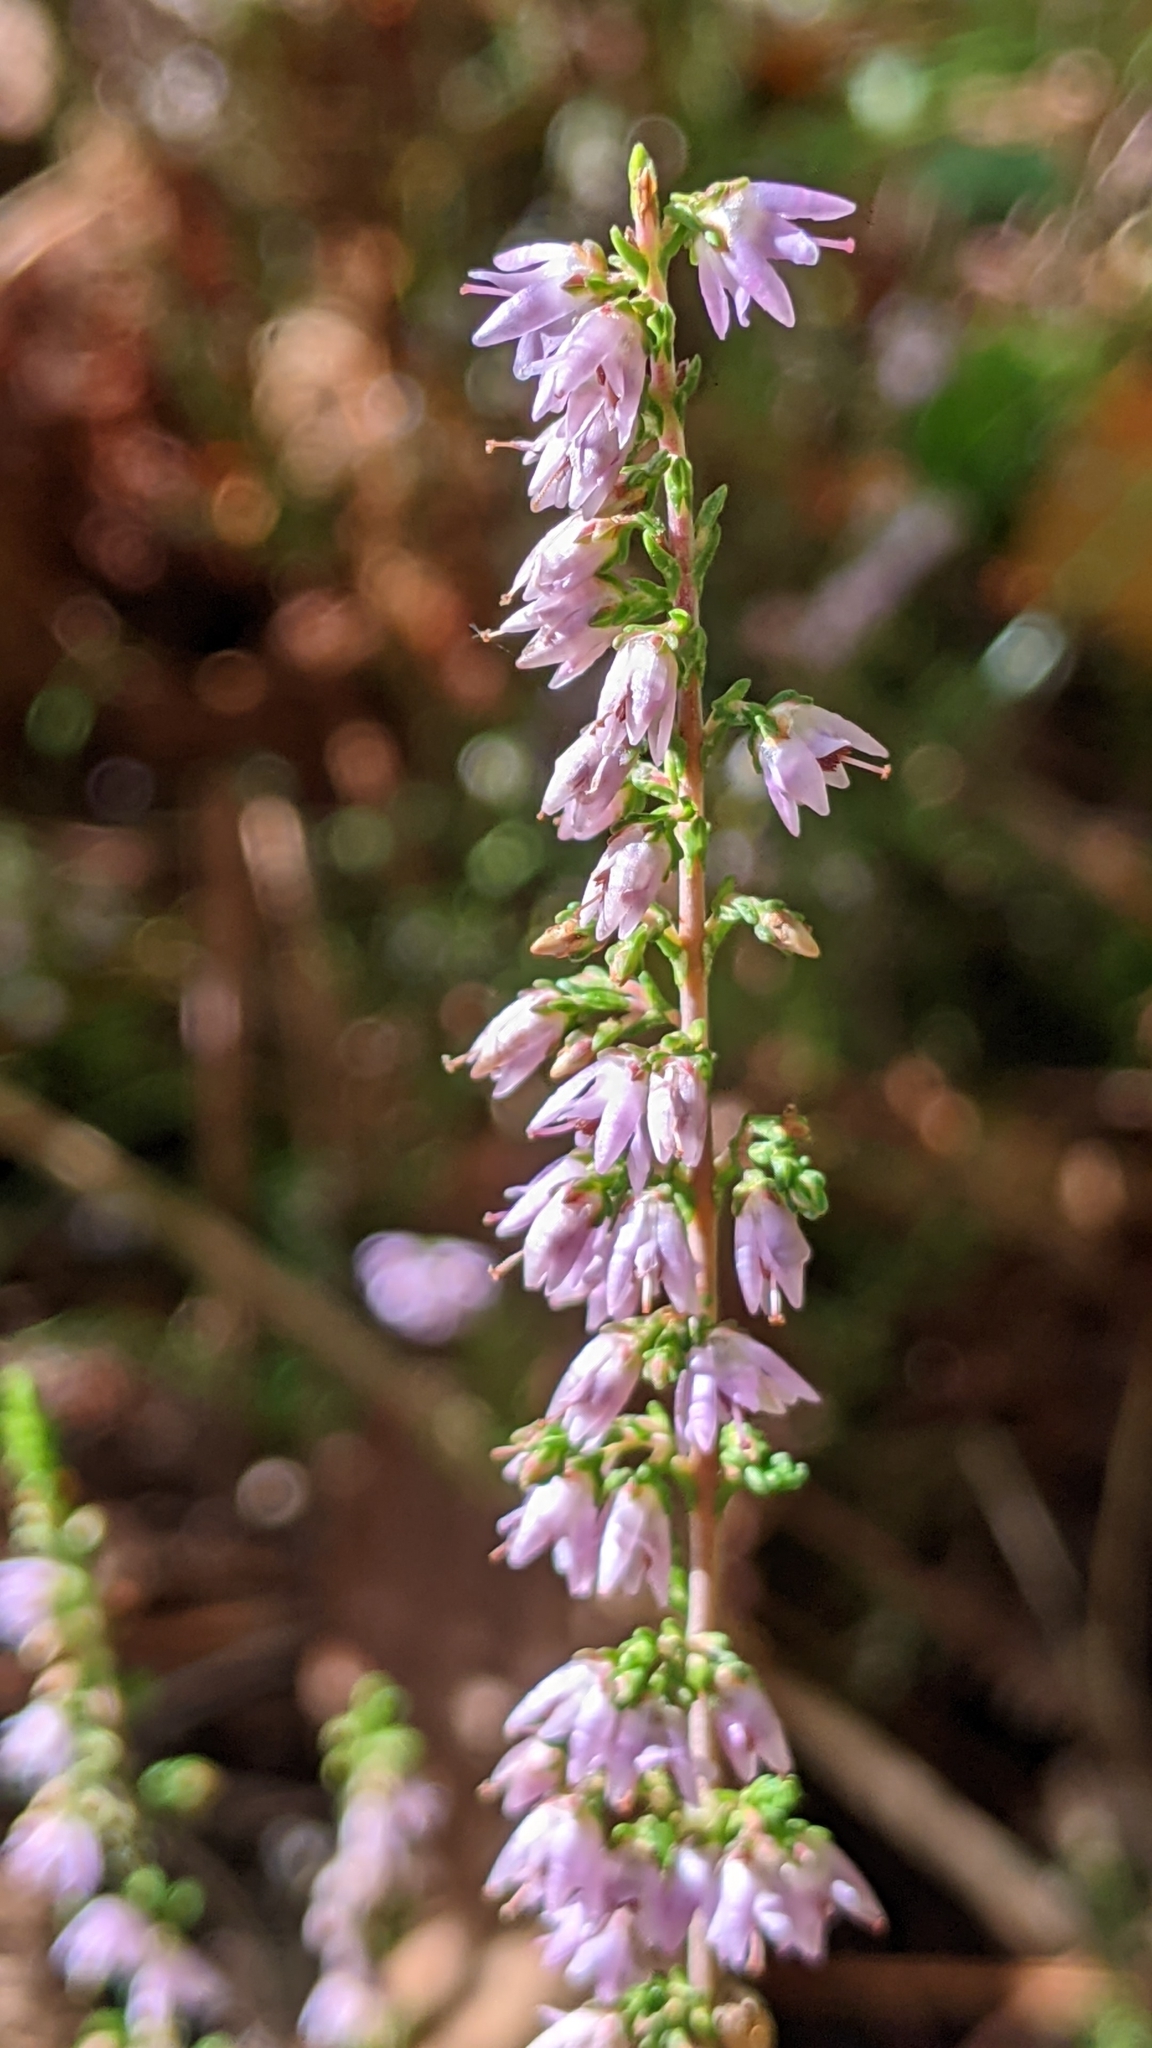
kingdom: Plantae
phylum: Tracheophyta
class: Magnoliopsida
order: Ericales
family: Ericaceae
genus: Calluna
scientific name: Calluna vulgaris
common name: Heather
